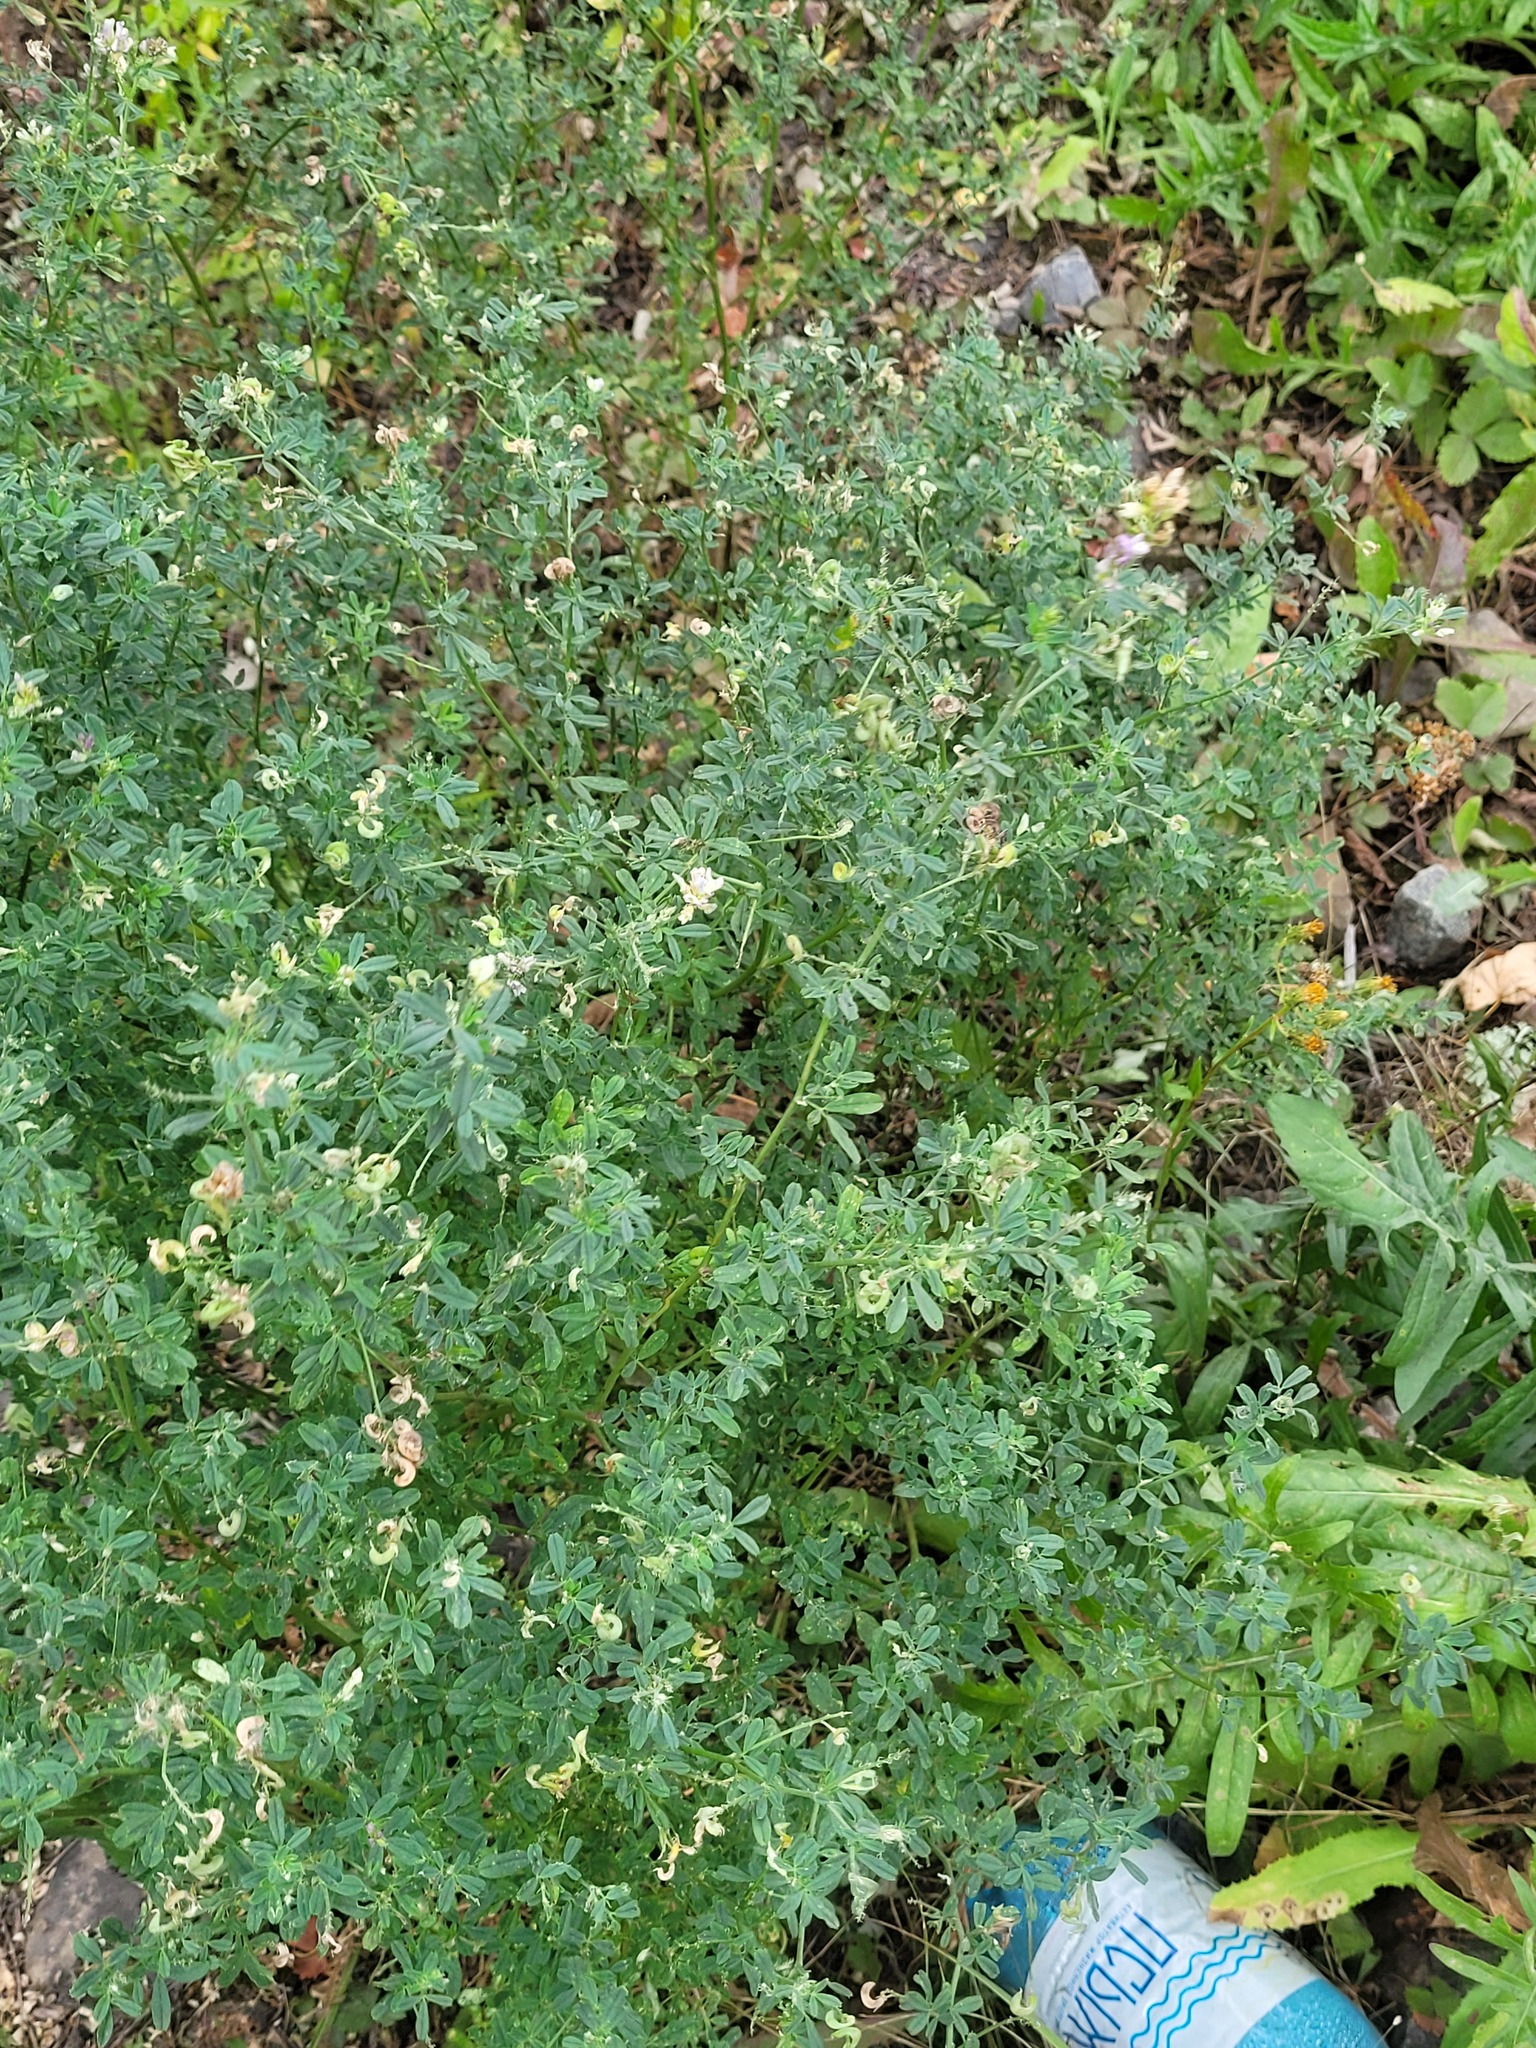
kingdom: Plantae
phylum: Tracheophyta
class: Magnoliopsida
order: Fabales
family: Fabaceae
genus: Medicago
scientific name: Medicago varia
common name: Sand lucerne
